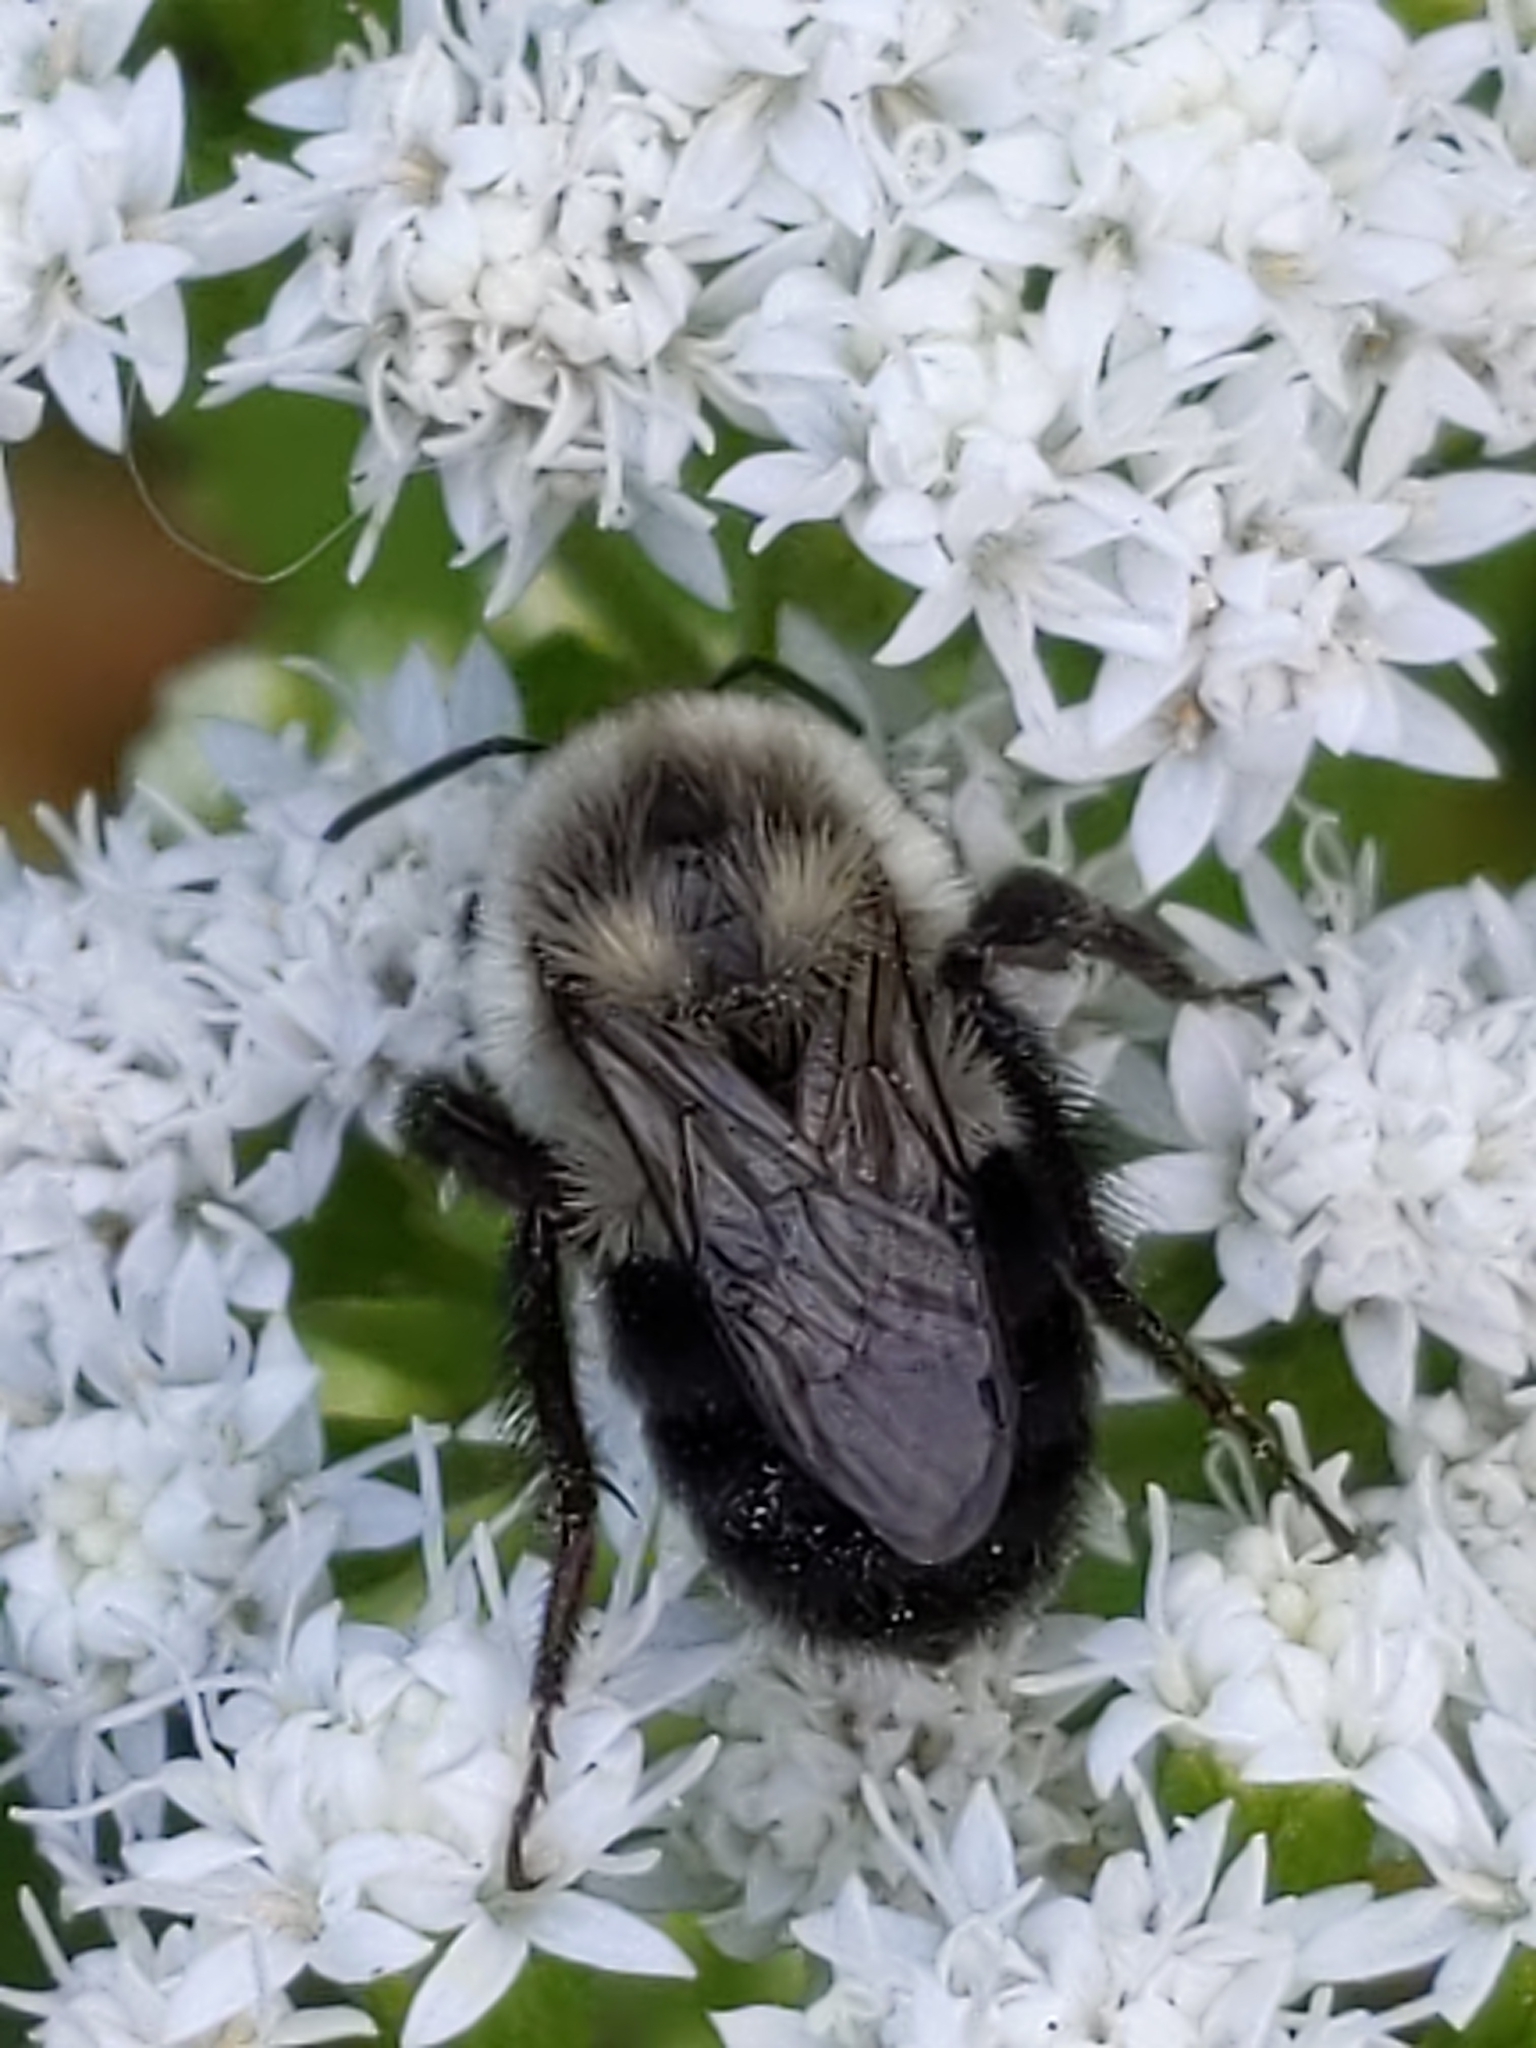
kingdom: Animalia
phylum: Arthropoda
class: Insecta
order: Hymenoptera
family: Apidae
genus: Bombus
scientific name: Bombus impatiens
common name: Common eastern bumble bee
